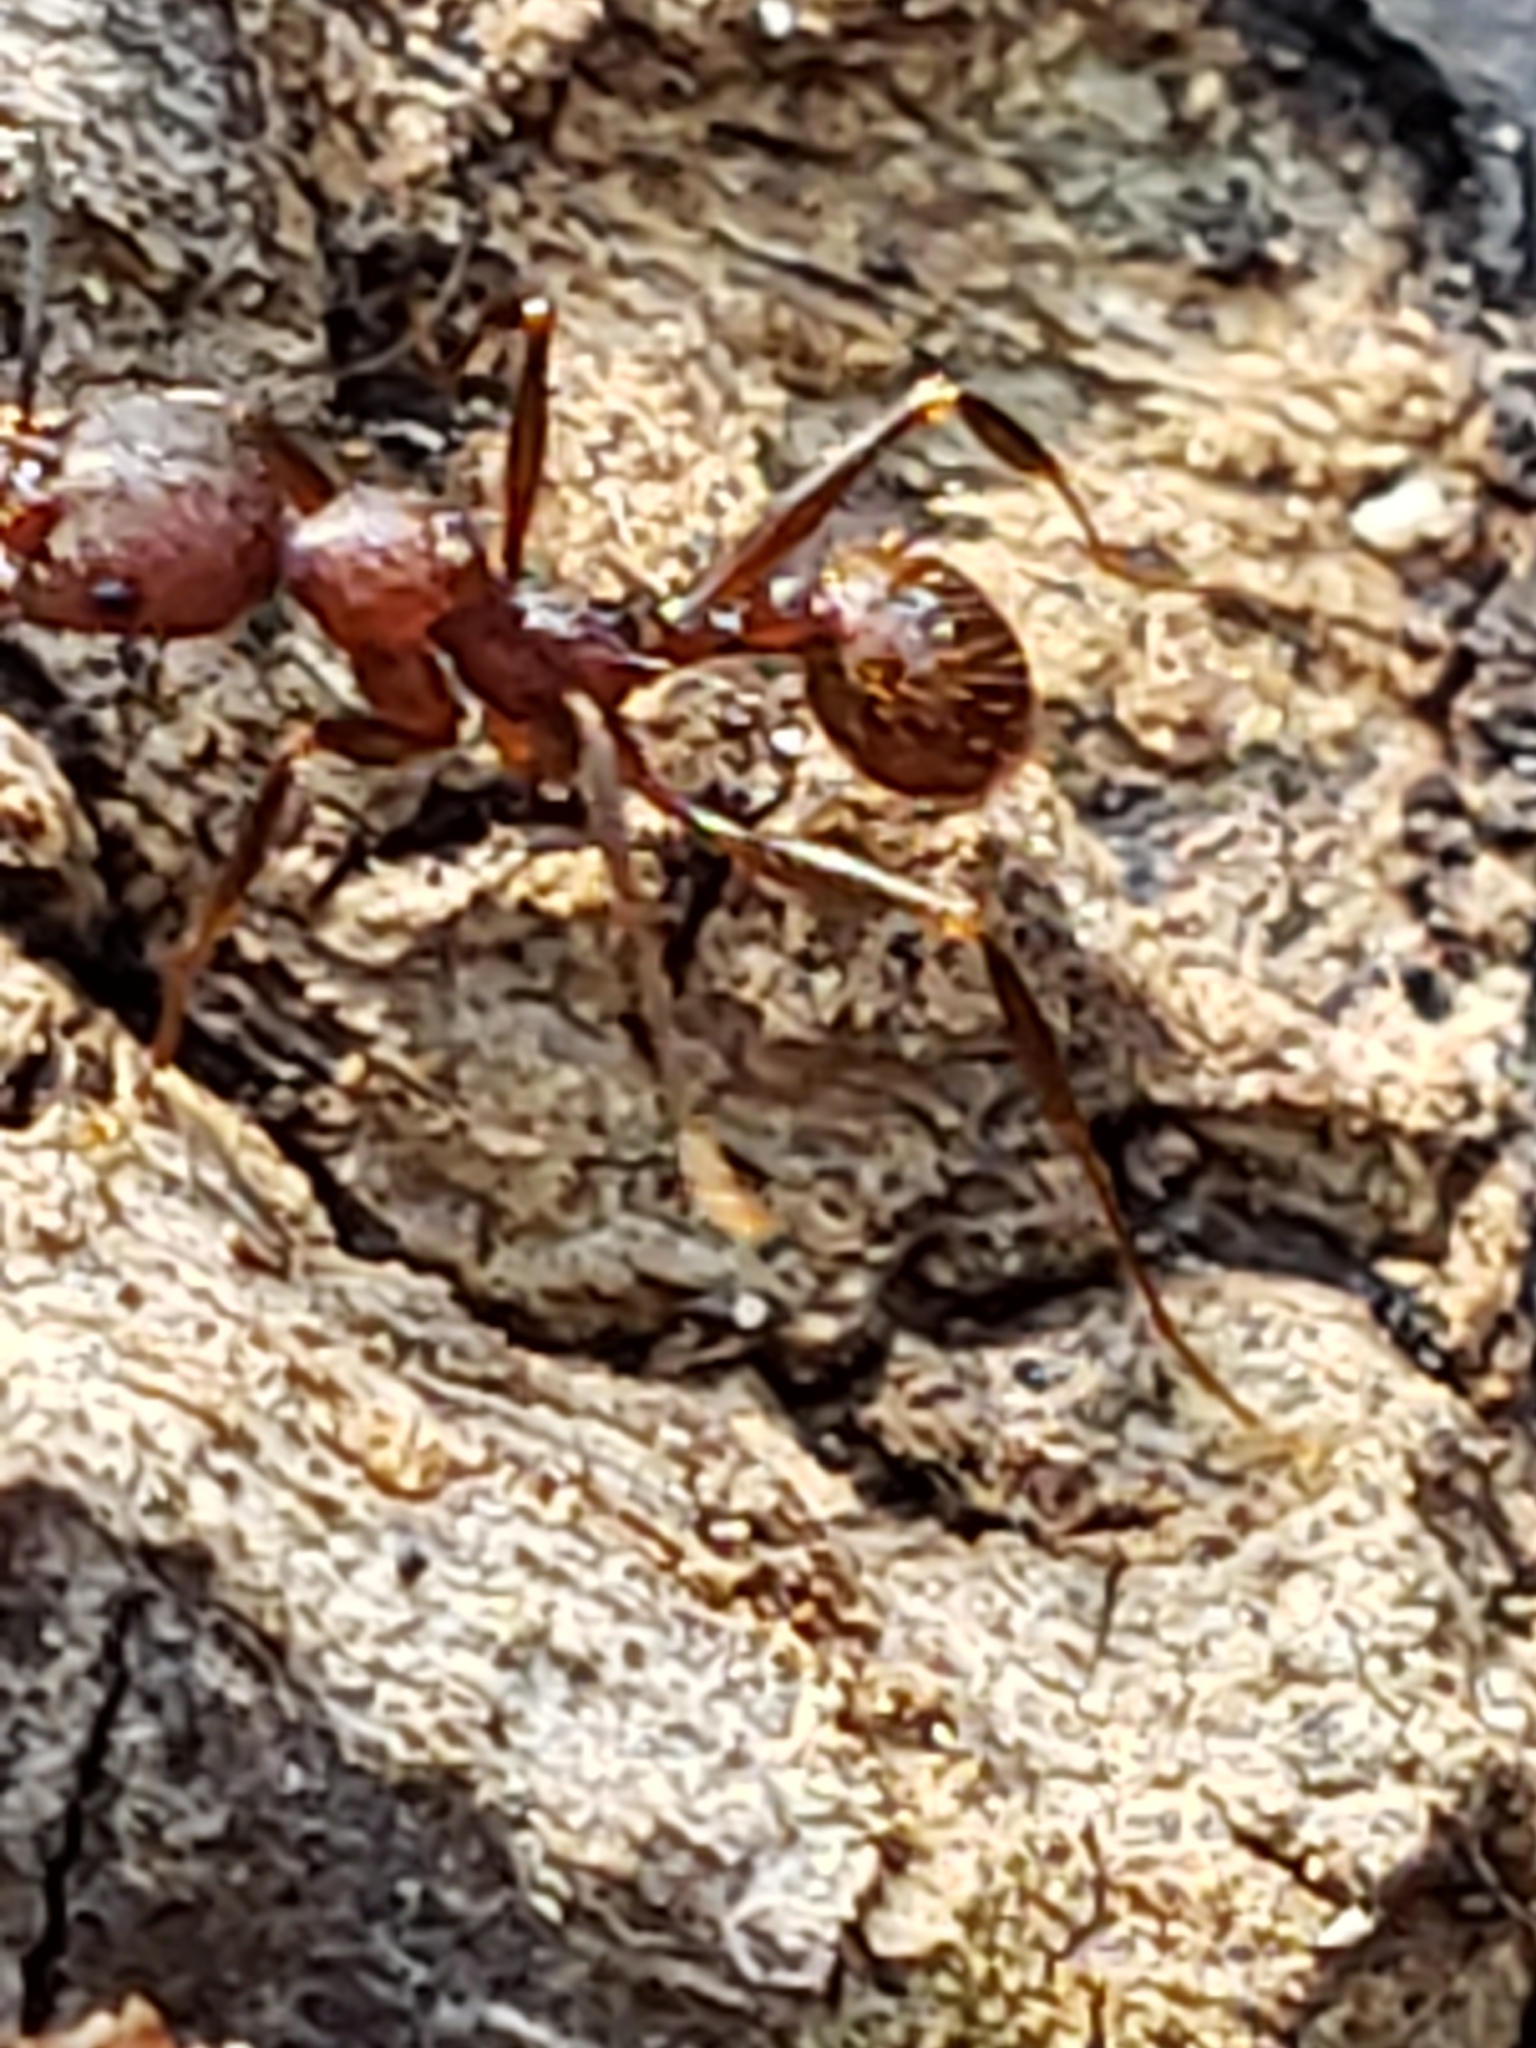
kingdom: Animalia
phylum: Arthropoda
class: Insecta
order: Hymenoptera
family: Formicidae
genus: Aphaenogaster
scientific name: Aphaenogaster fulva
